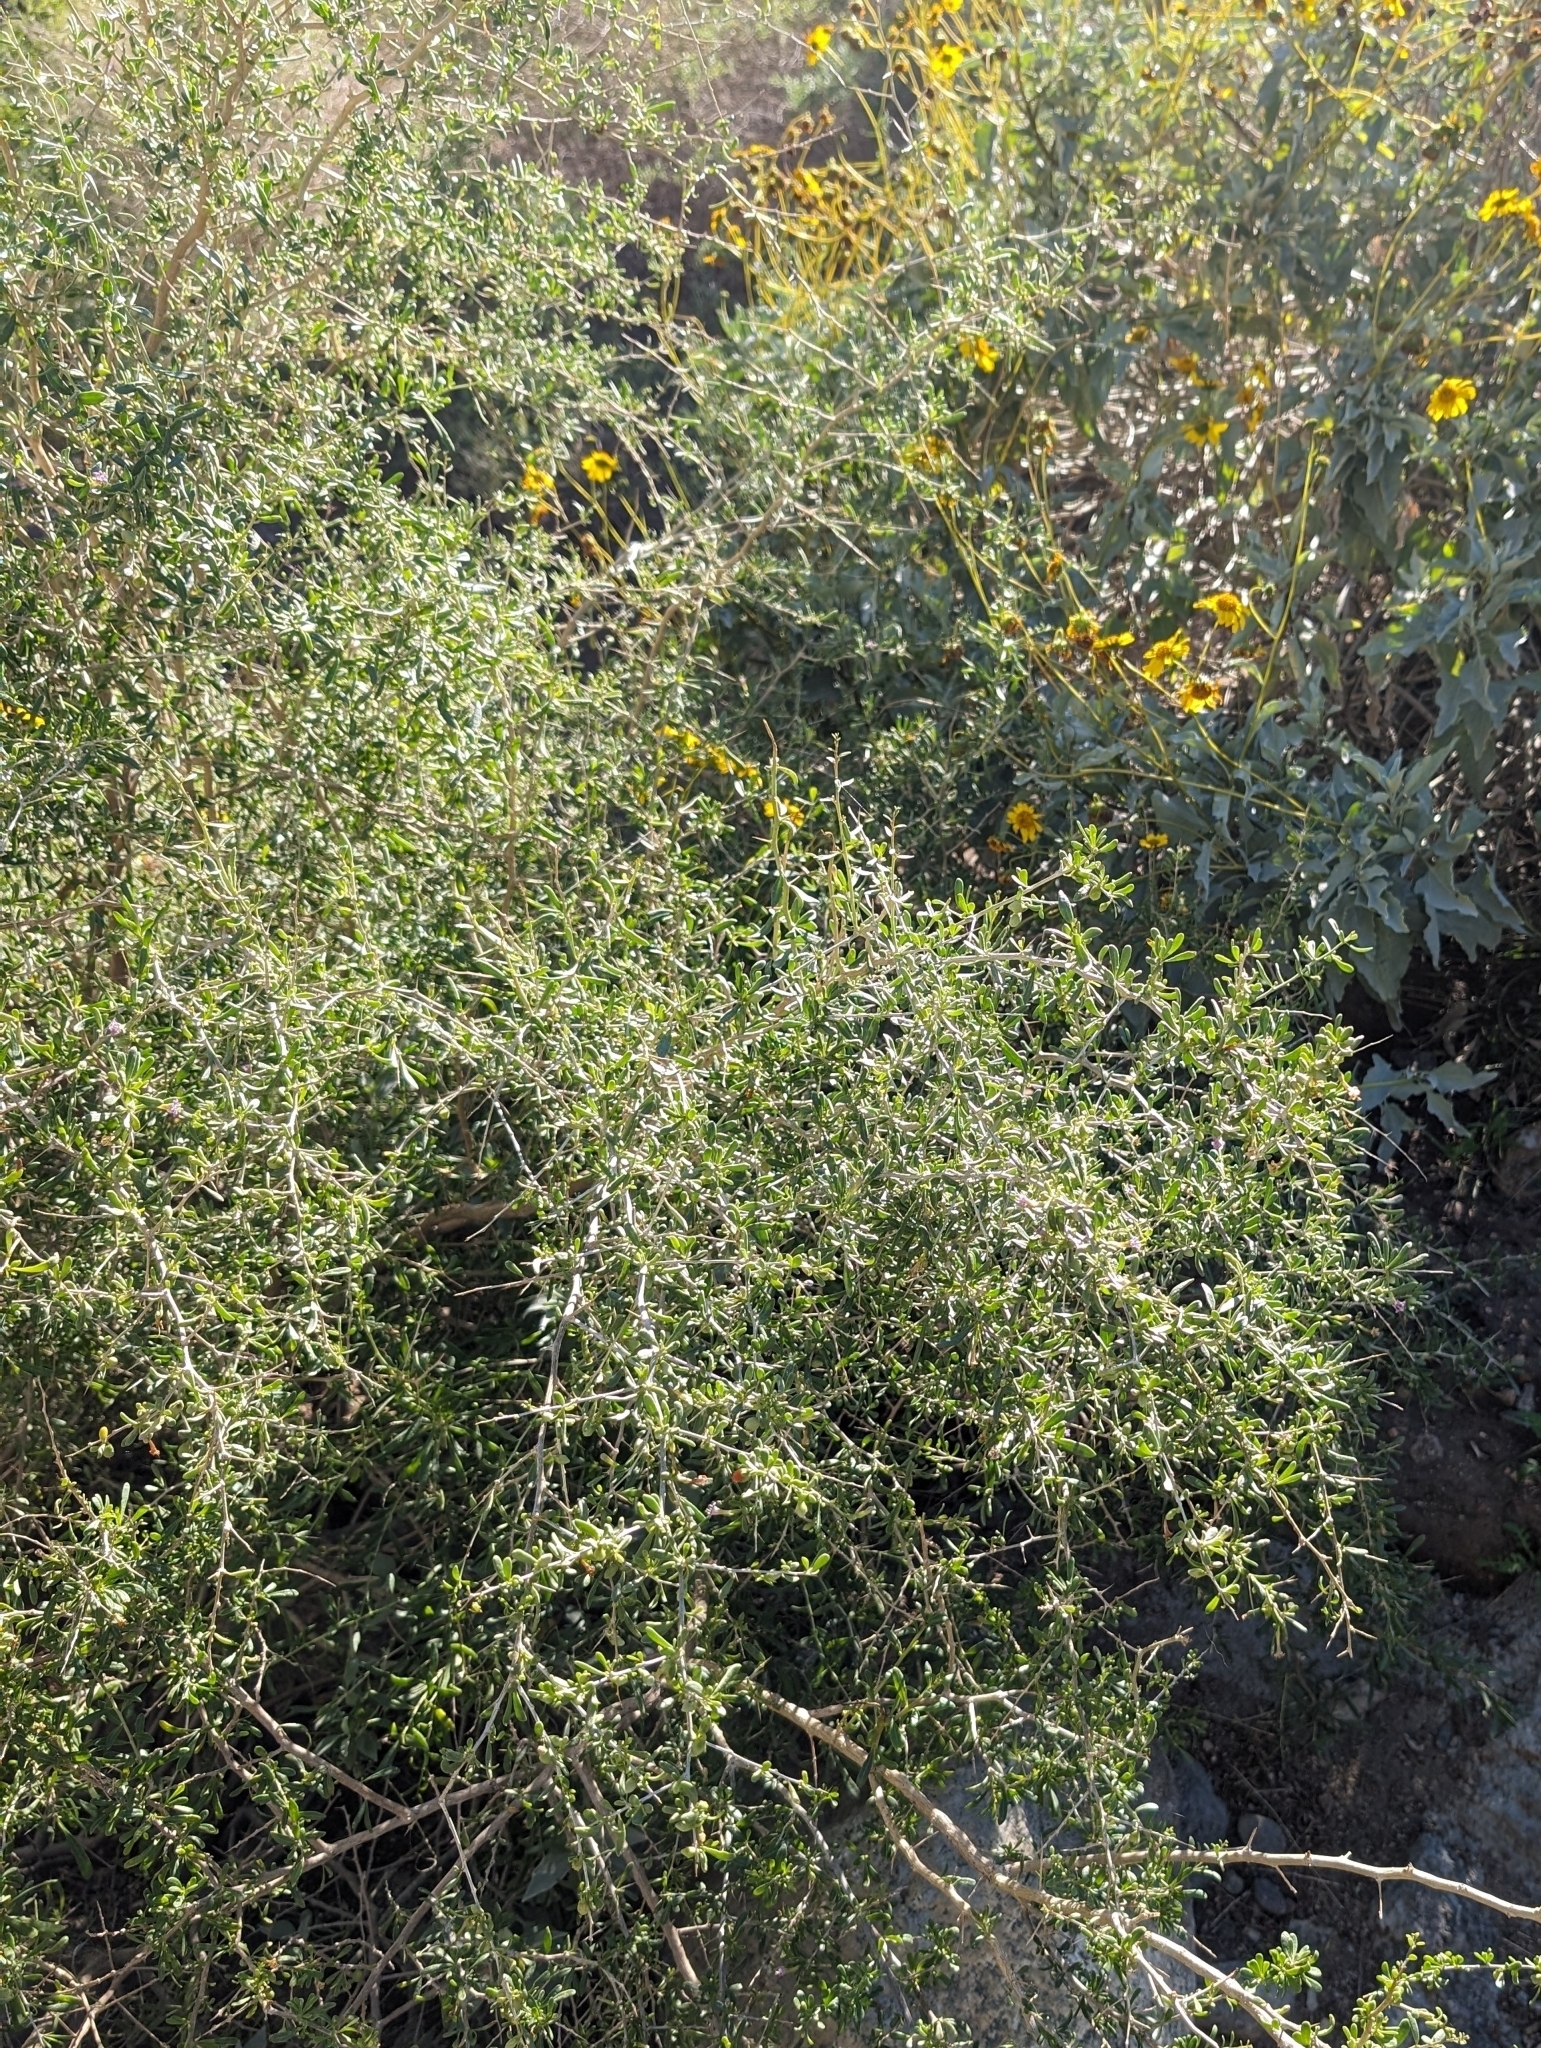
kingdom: Plantae
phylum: Tracheophyta
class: Magnoliopsida
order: Solanales
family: Solanaceae
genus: Lycium
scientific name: Lycium andersonii
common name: Water-jacket
